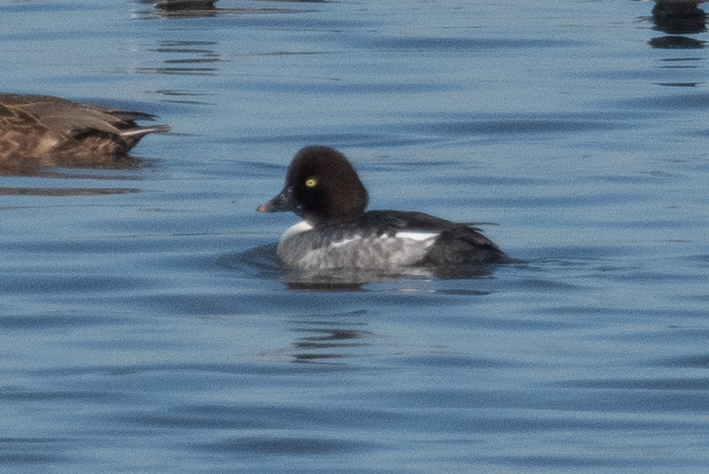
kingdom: Animalia
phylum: Chordata
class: Aves
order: Anseriformes
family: Anatidae
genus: Bucephala
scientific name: Bucephala clangula
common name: Common goldeneye
